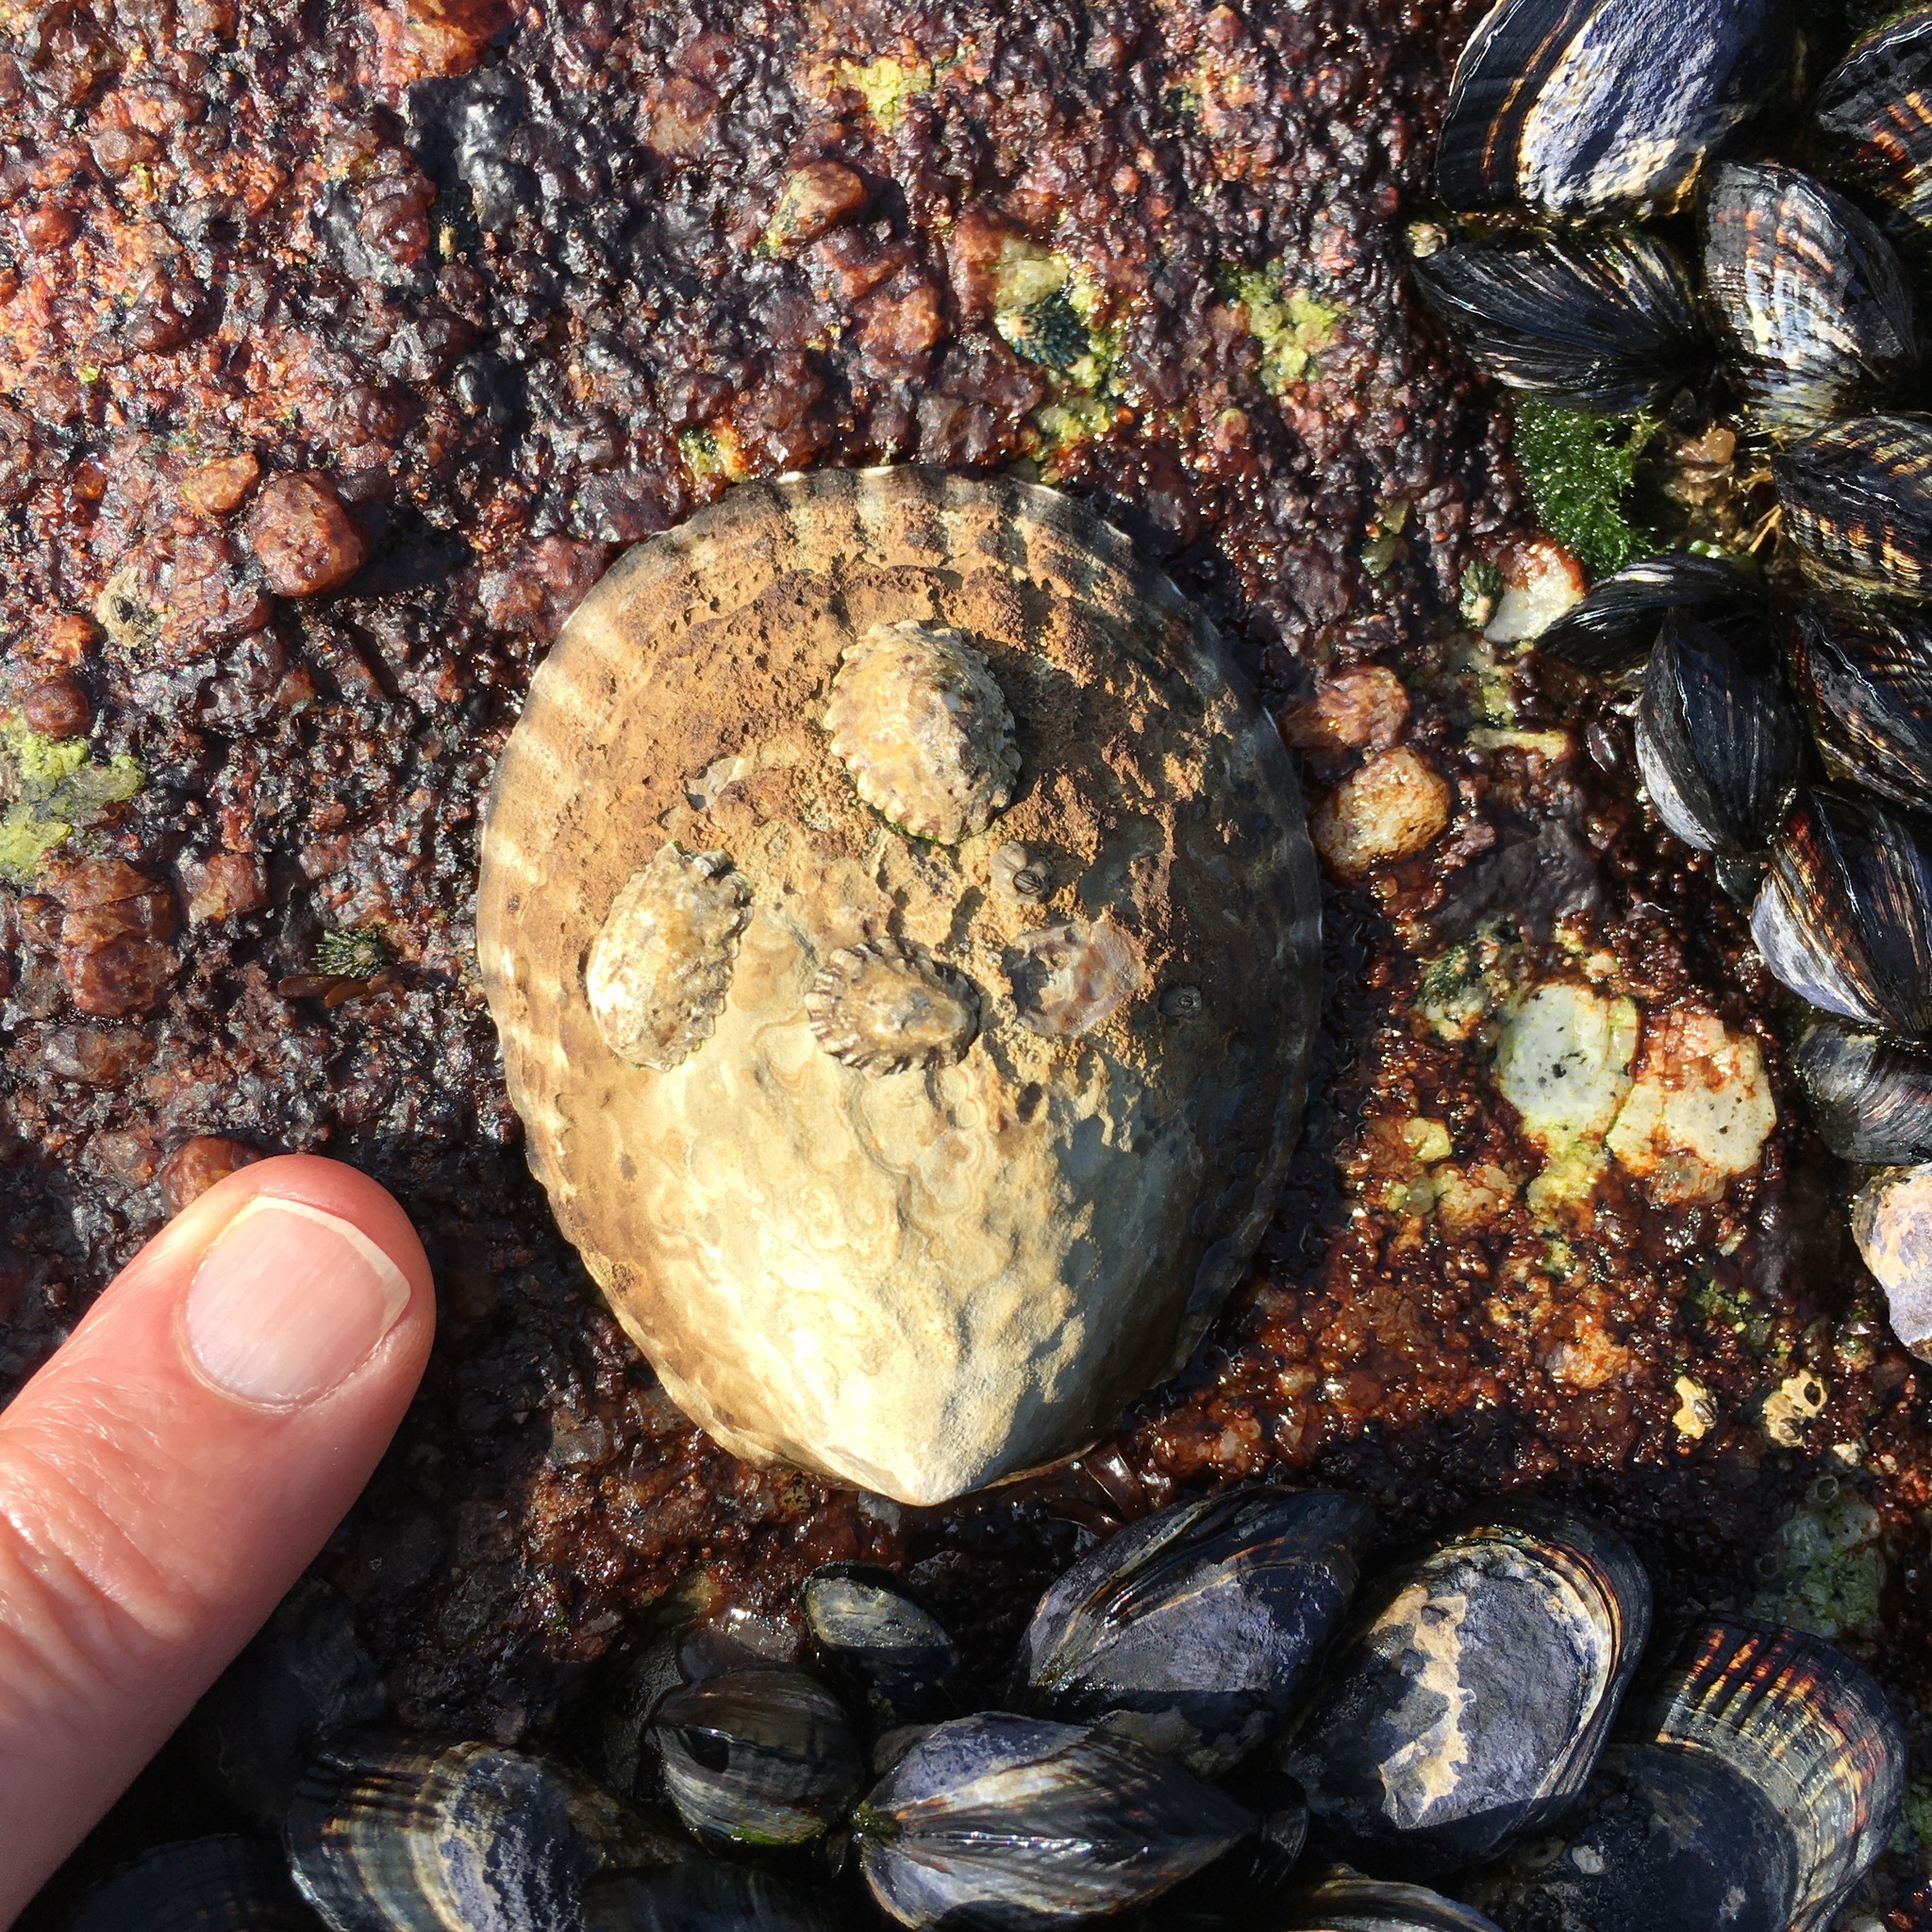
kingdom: Animalia
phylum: Mollusca
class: Gastropoda
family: Lottiidae
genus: Lottia
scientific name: Lottia gigantea
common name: Owl limpet
